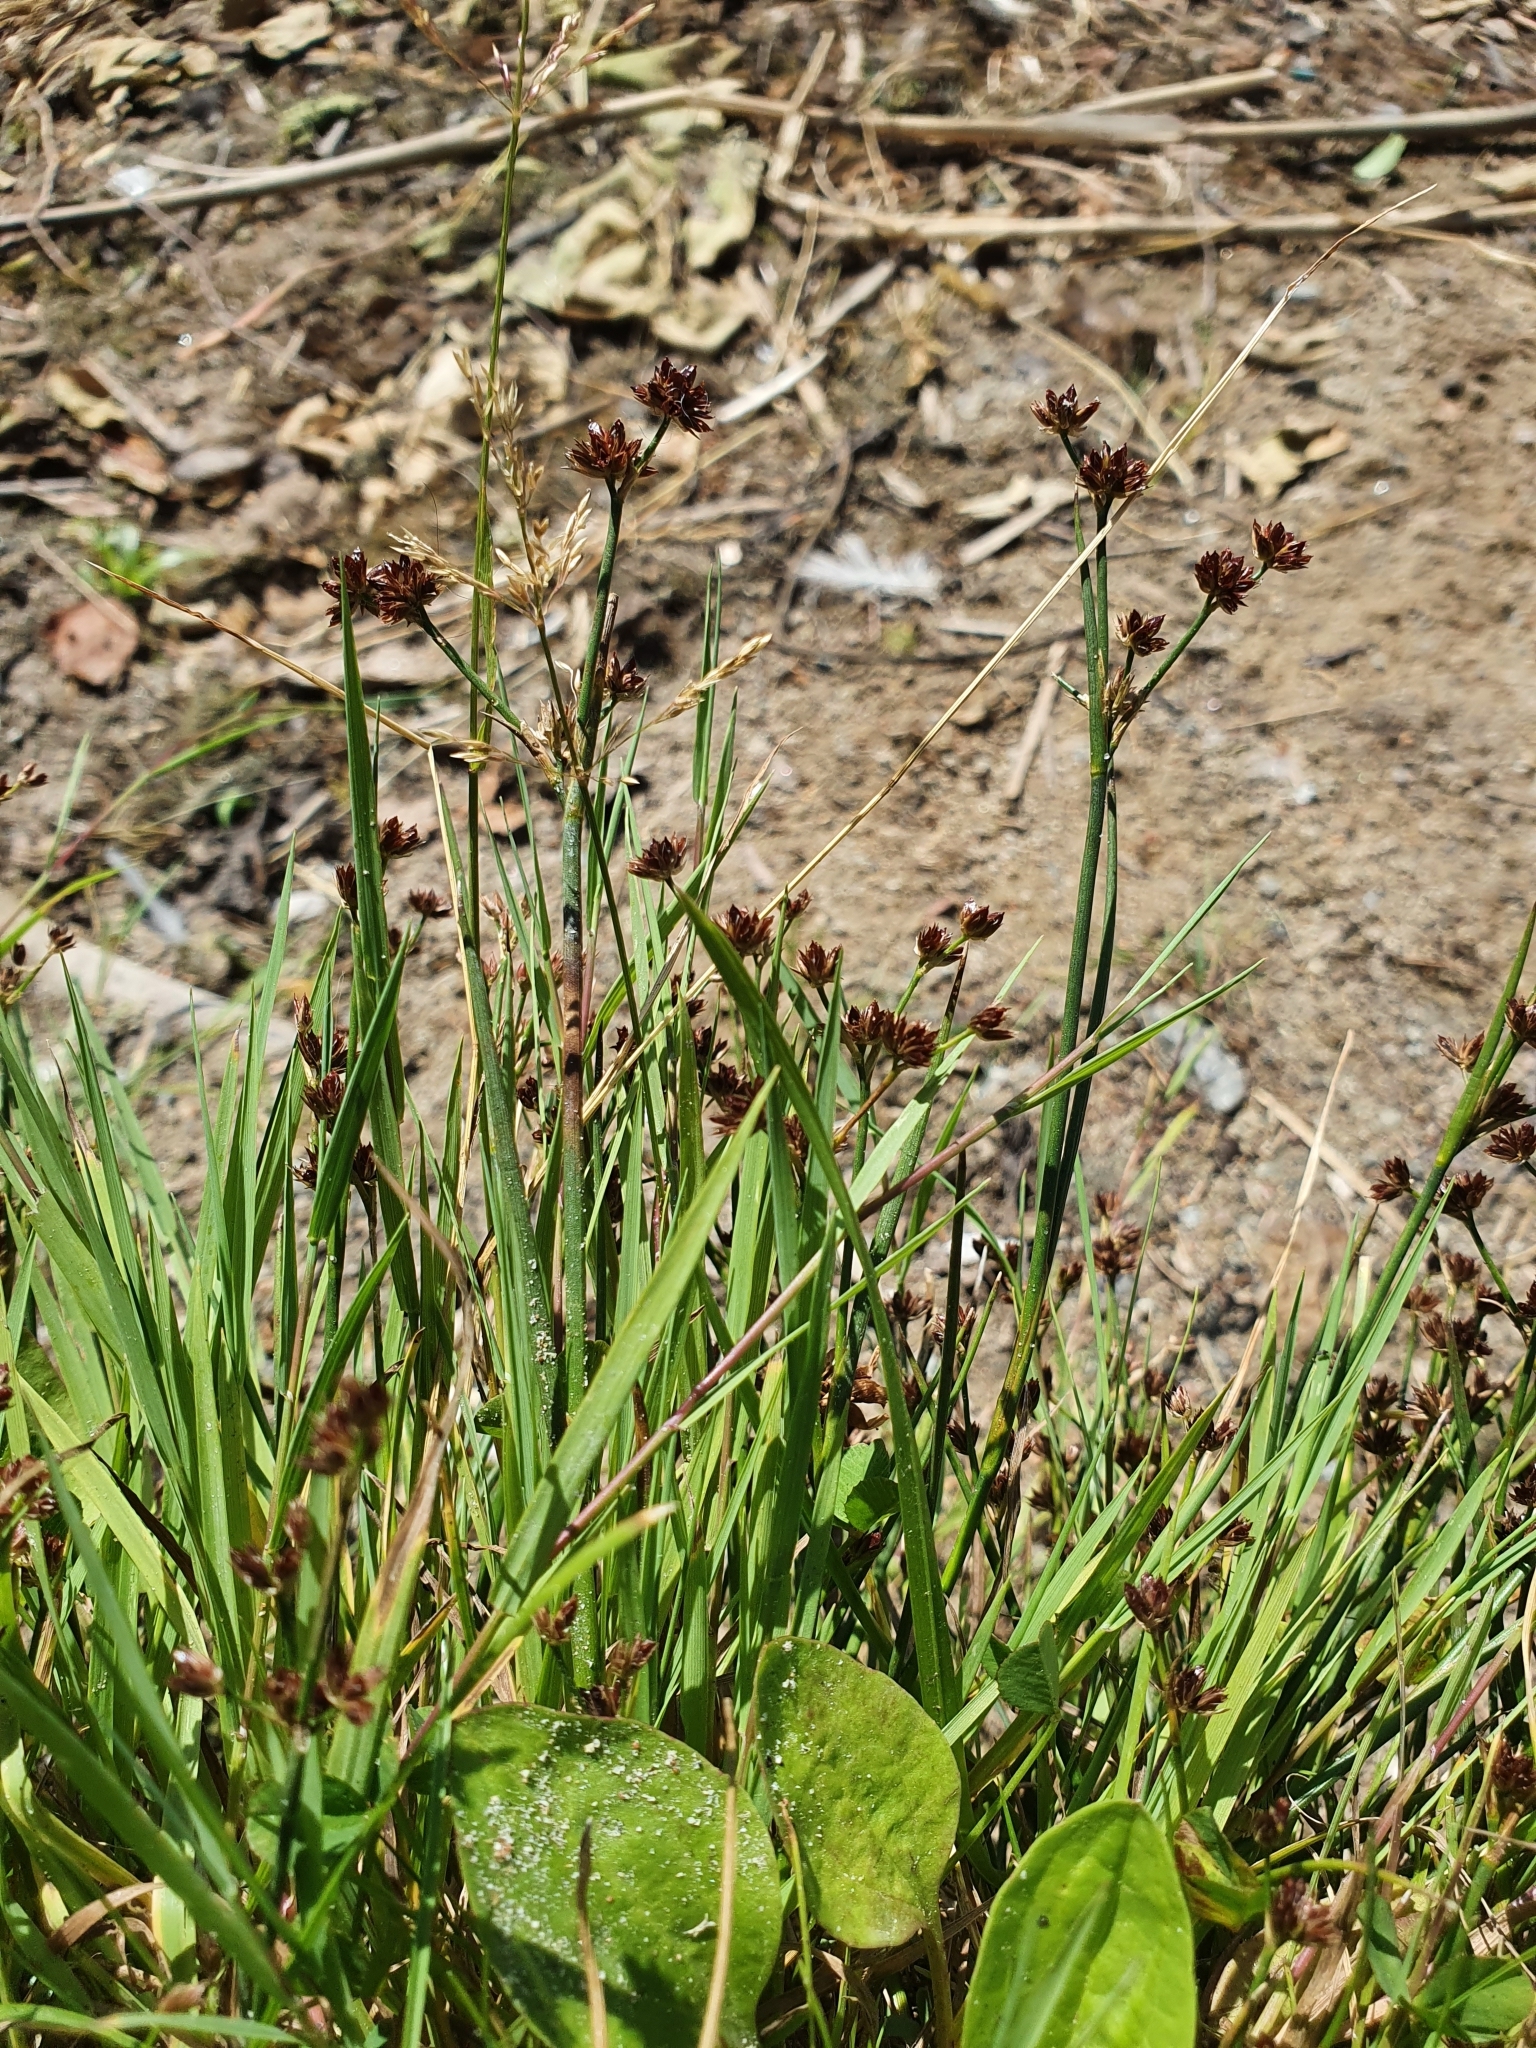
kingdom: Plantae
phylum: Tracheophyta
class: Liliopsida
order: Poales
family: Juncaceae
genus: Juncus
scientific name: Juncus articulatus
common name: Jointed rush
